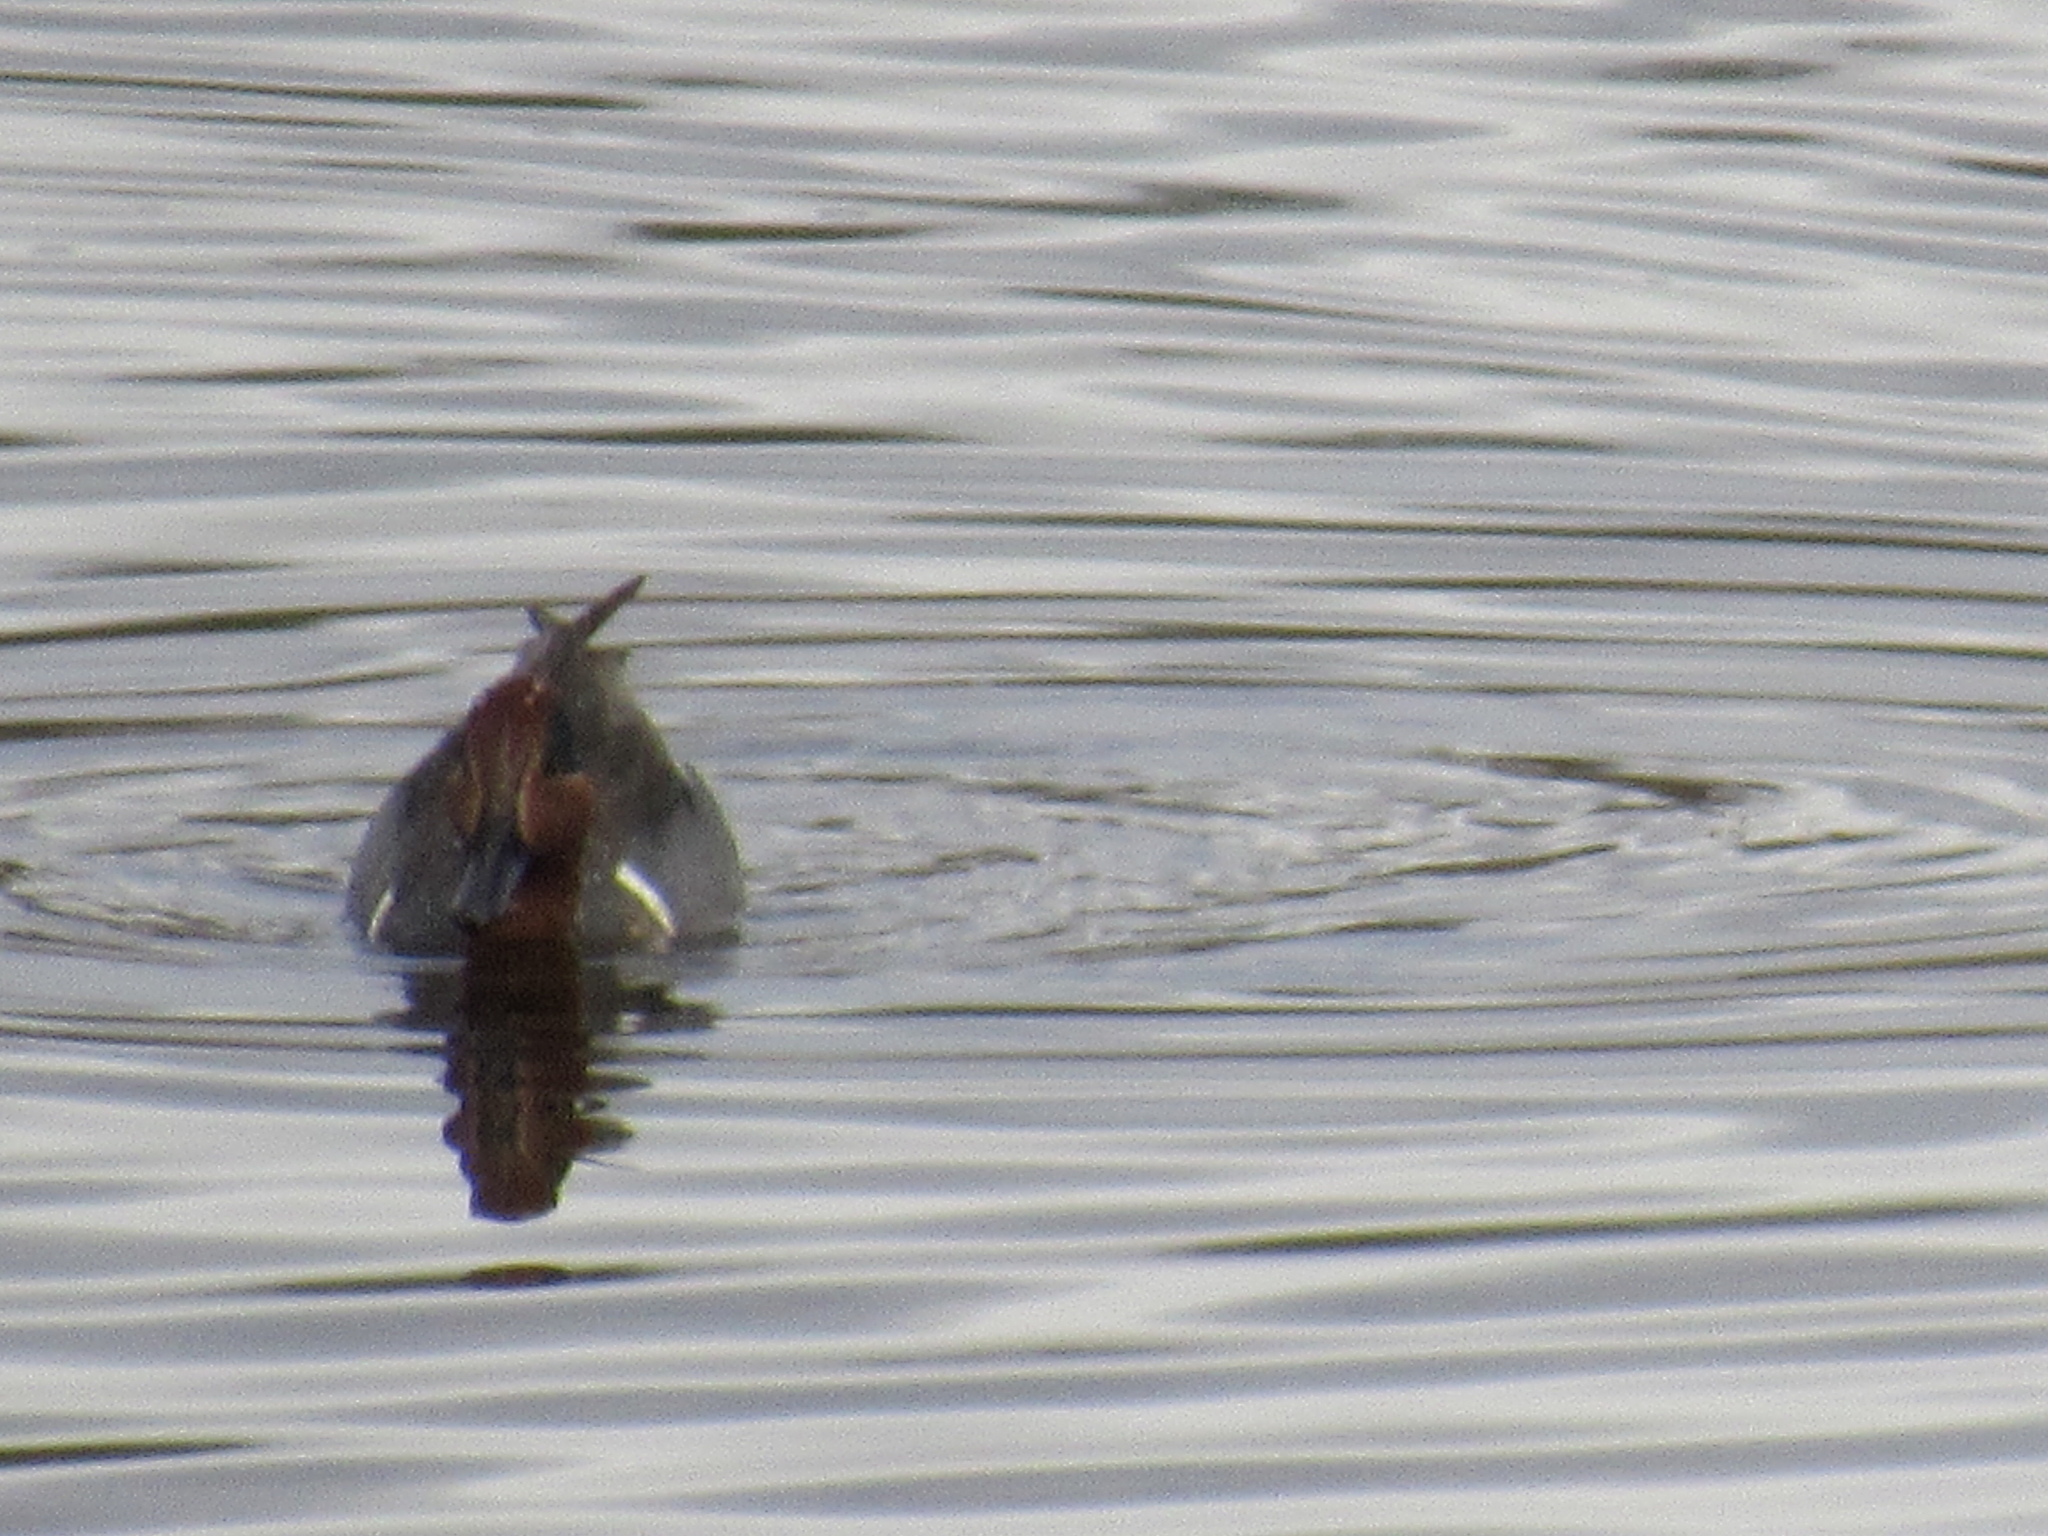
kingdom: Animalia
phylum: Chordata
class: Aves
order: Anseriformes
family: Anatidae
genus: Anas
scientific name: Anas crecca
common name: Eurasian teal
